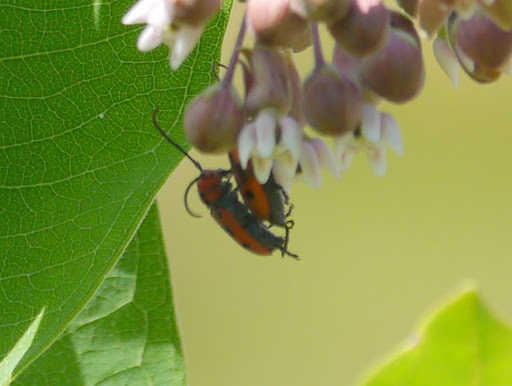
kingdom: Animalia
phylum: Arthropoda
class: Insecta
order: Coleoptera
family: Cerambycidae
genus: Tetraopes
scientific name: Tetraopes tetrophthalmus
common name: Red milkweed beetle
